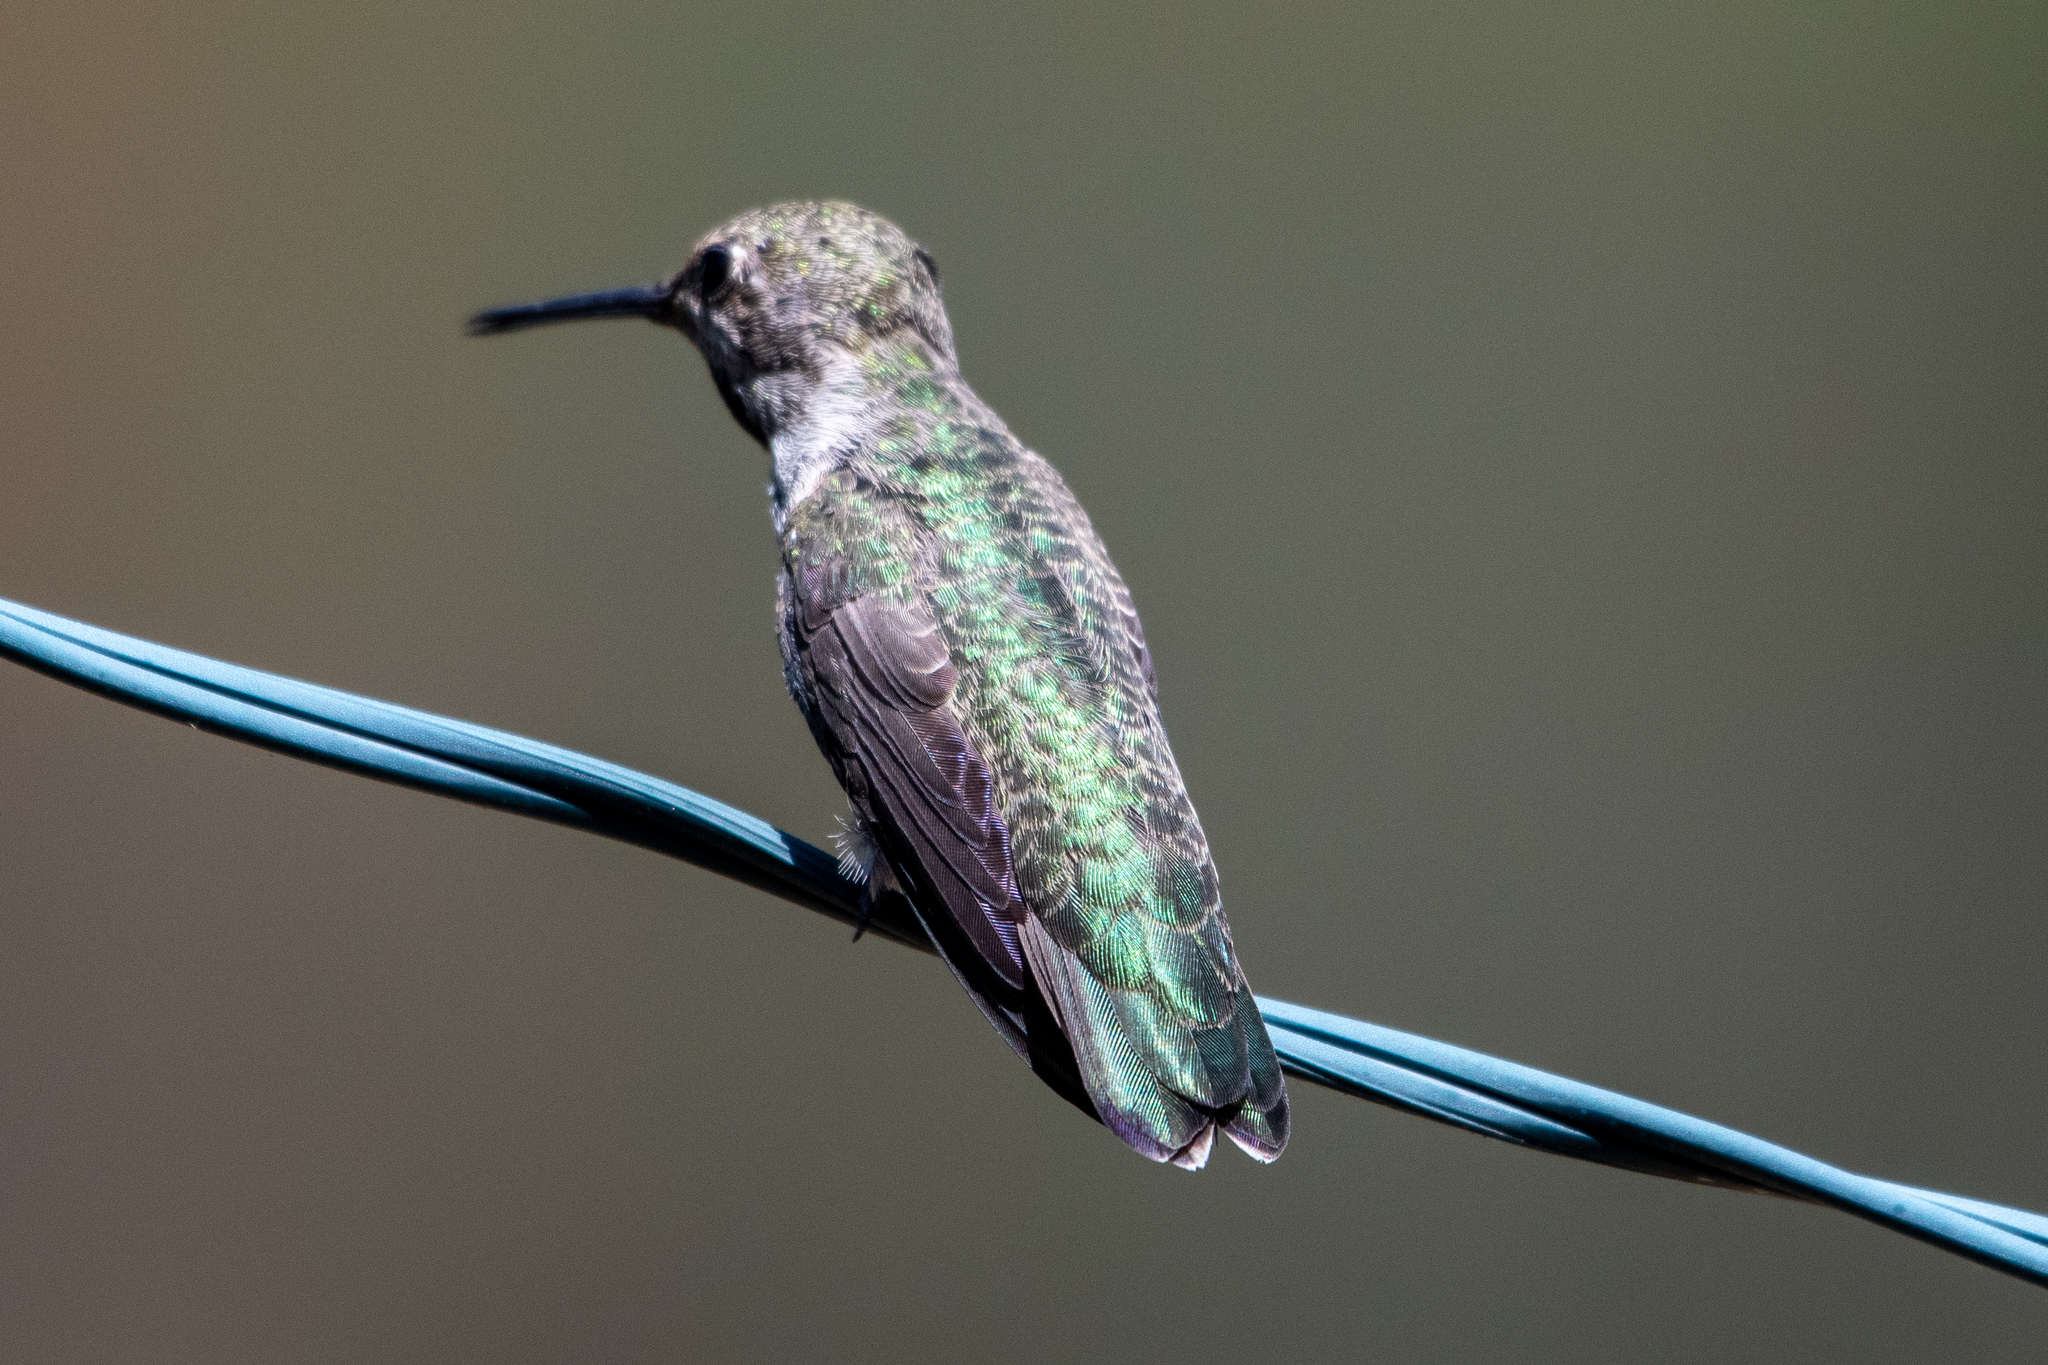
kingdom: Animalia
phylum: Chordata
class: Aves
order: Apodiformes
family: Trochilidae
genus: Calypte
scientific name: Calypte anna
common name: Anna's hummingbird
